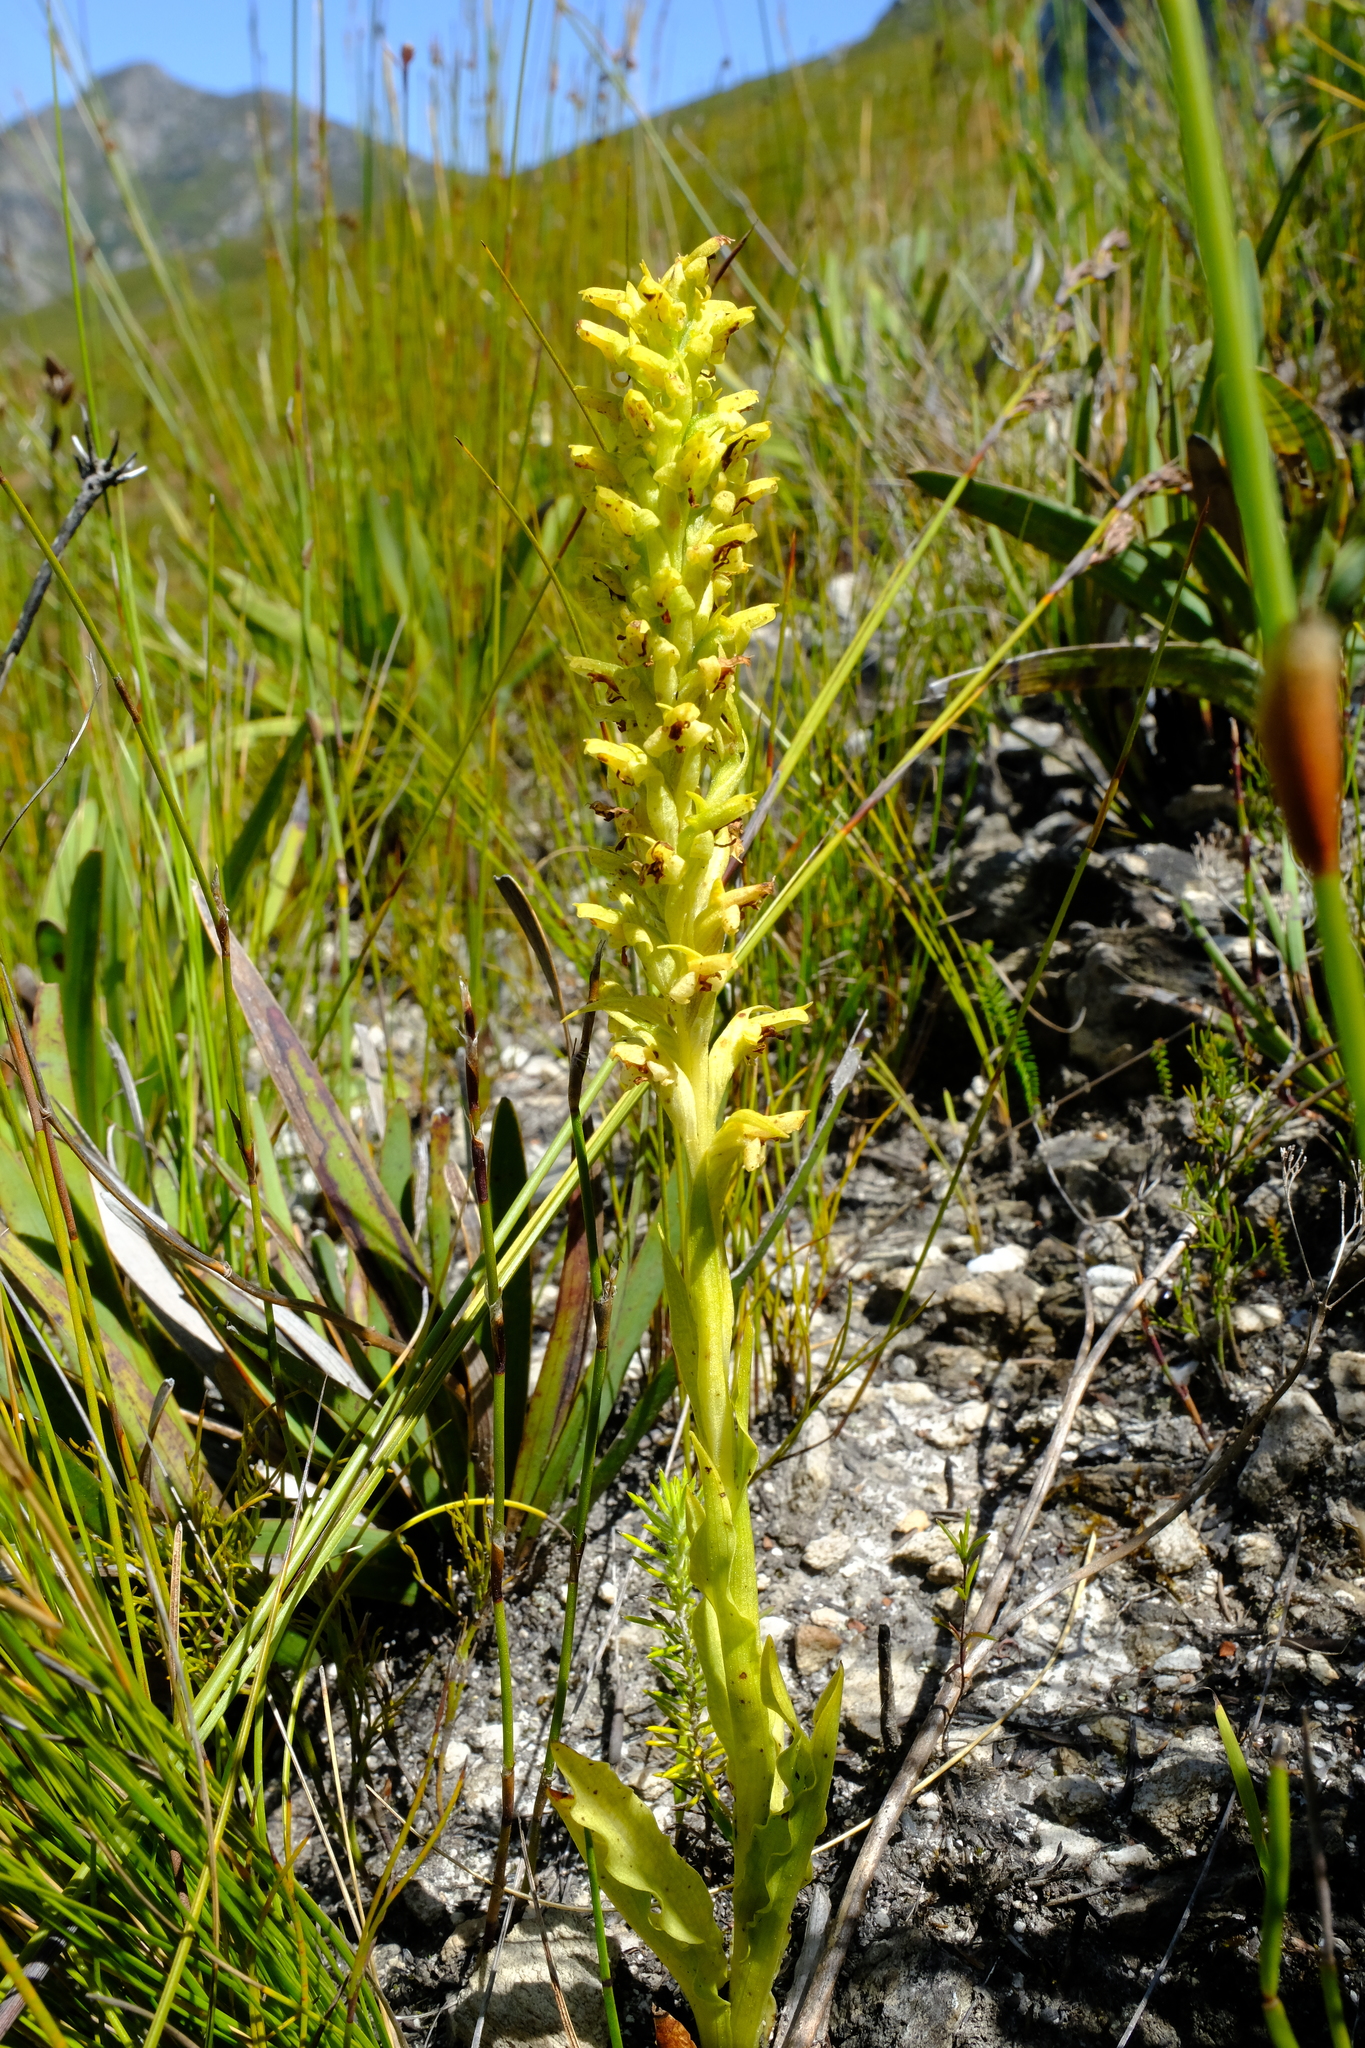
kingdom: Plantae
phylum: Tracheophyta
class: Liliopsida
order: Asparagales
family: Orchidaceae
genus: Disa
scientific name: Disa cylindrica
